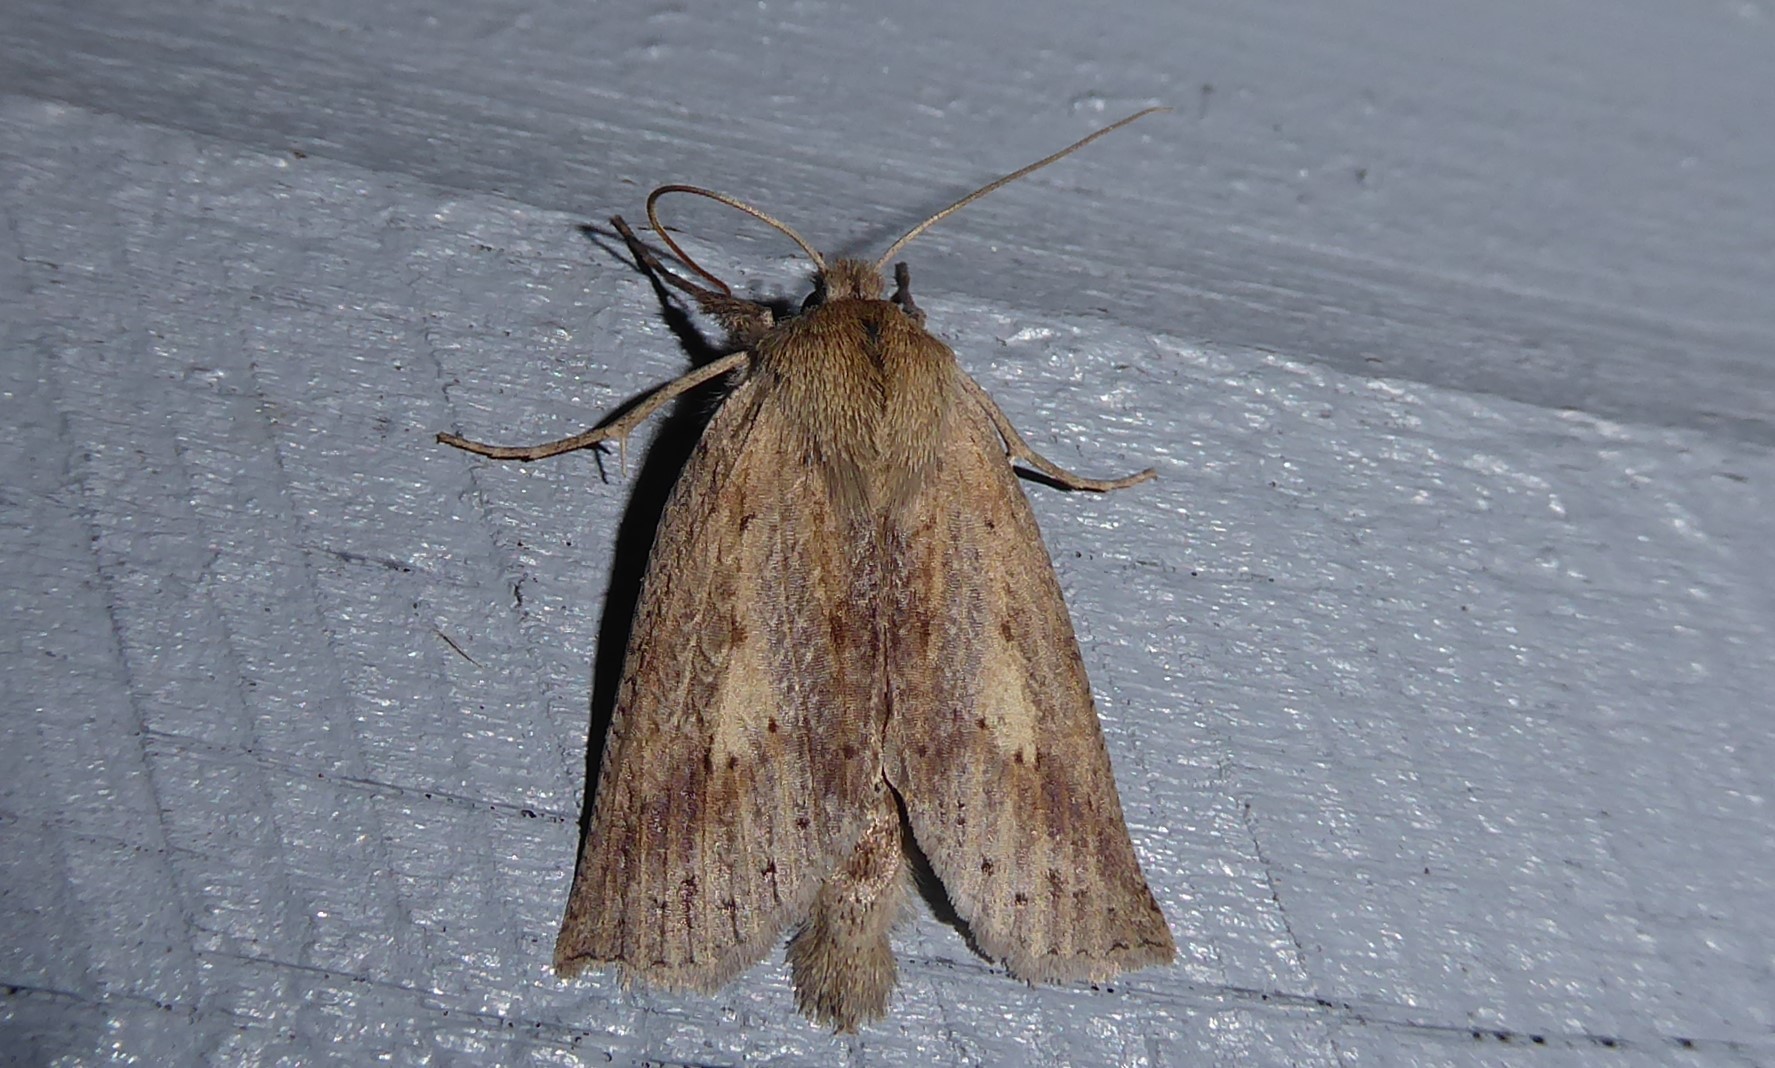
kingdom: Animalia
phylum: Arthropoda
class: Insecta
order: Lepidoptera
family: Geometridae
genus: Declana
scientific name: Declana leptomera
